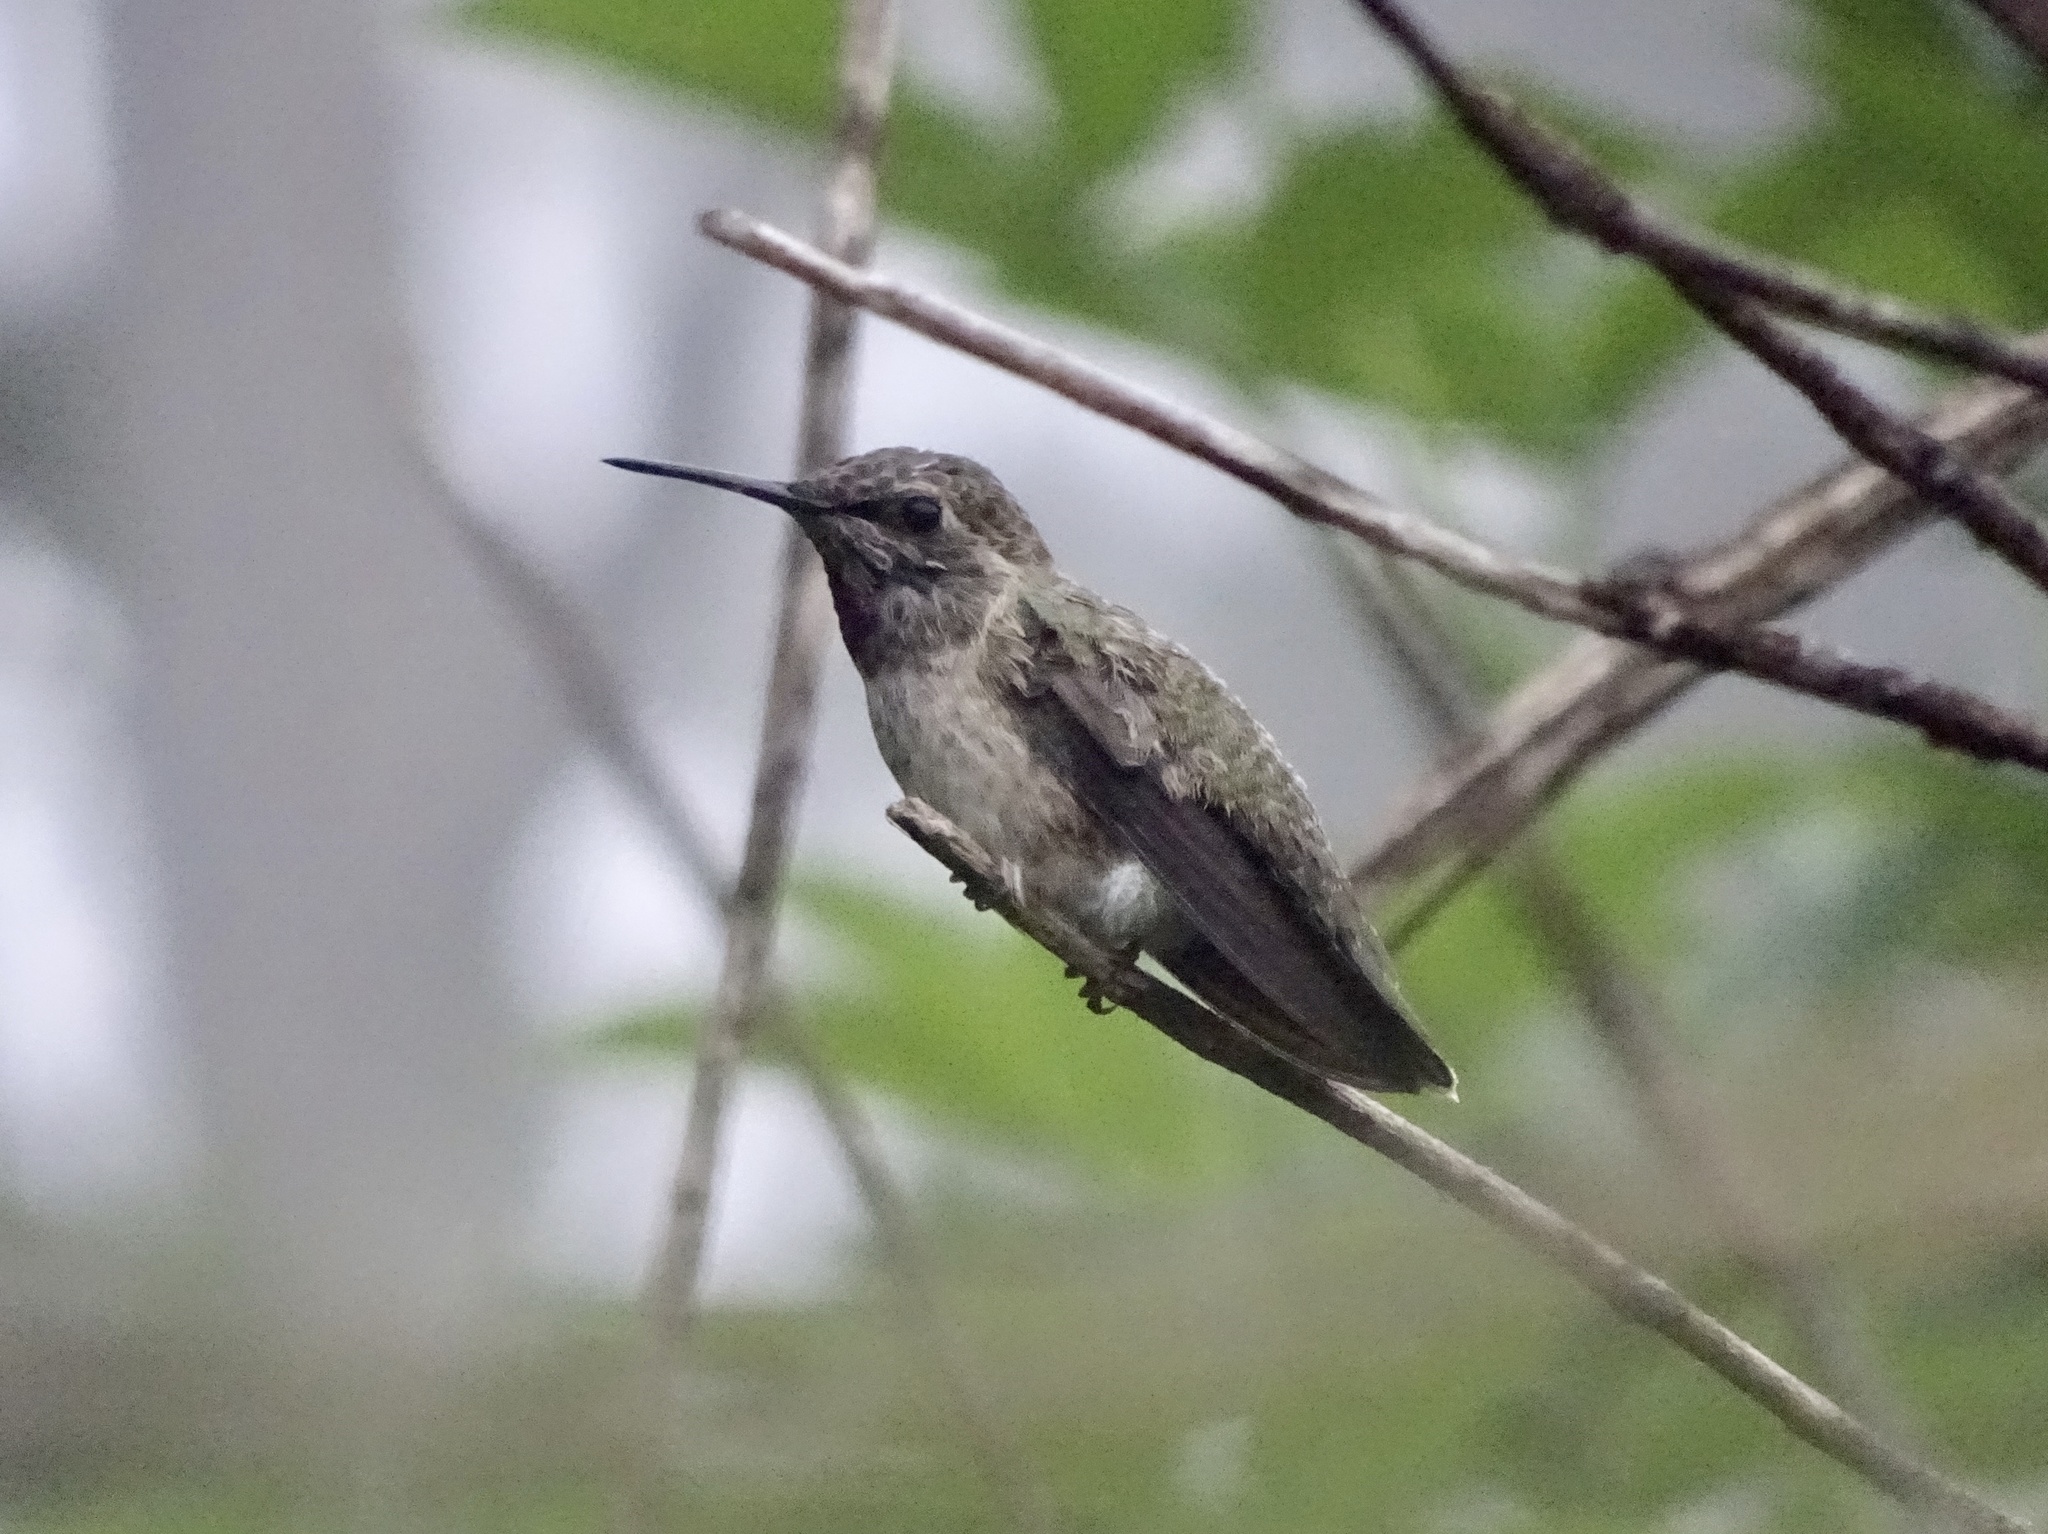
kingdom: Animalia
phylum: Chordata
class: Aves
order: Apodiformes
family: Trochilidae
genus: Calypte
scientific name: Calypte anna
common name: Anna's hummingbird
